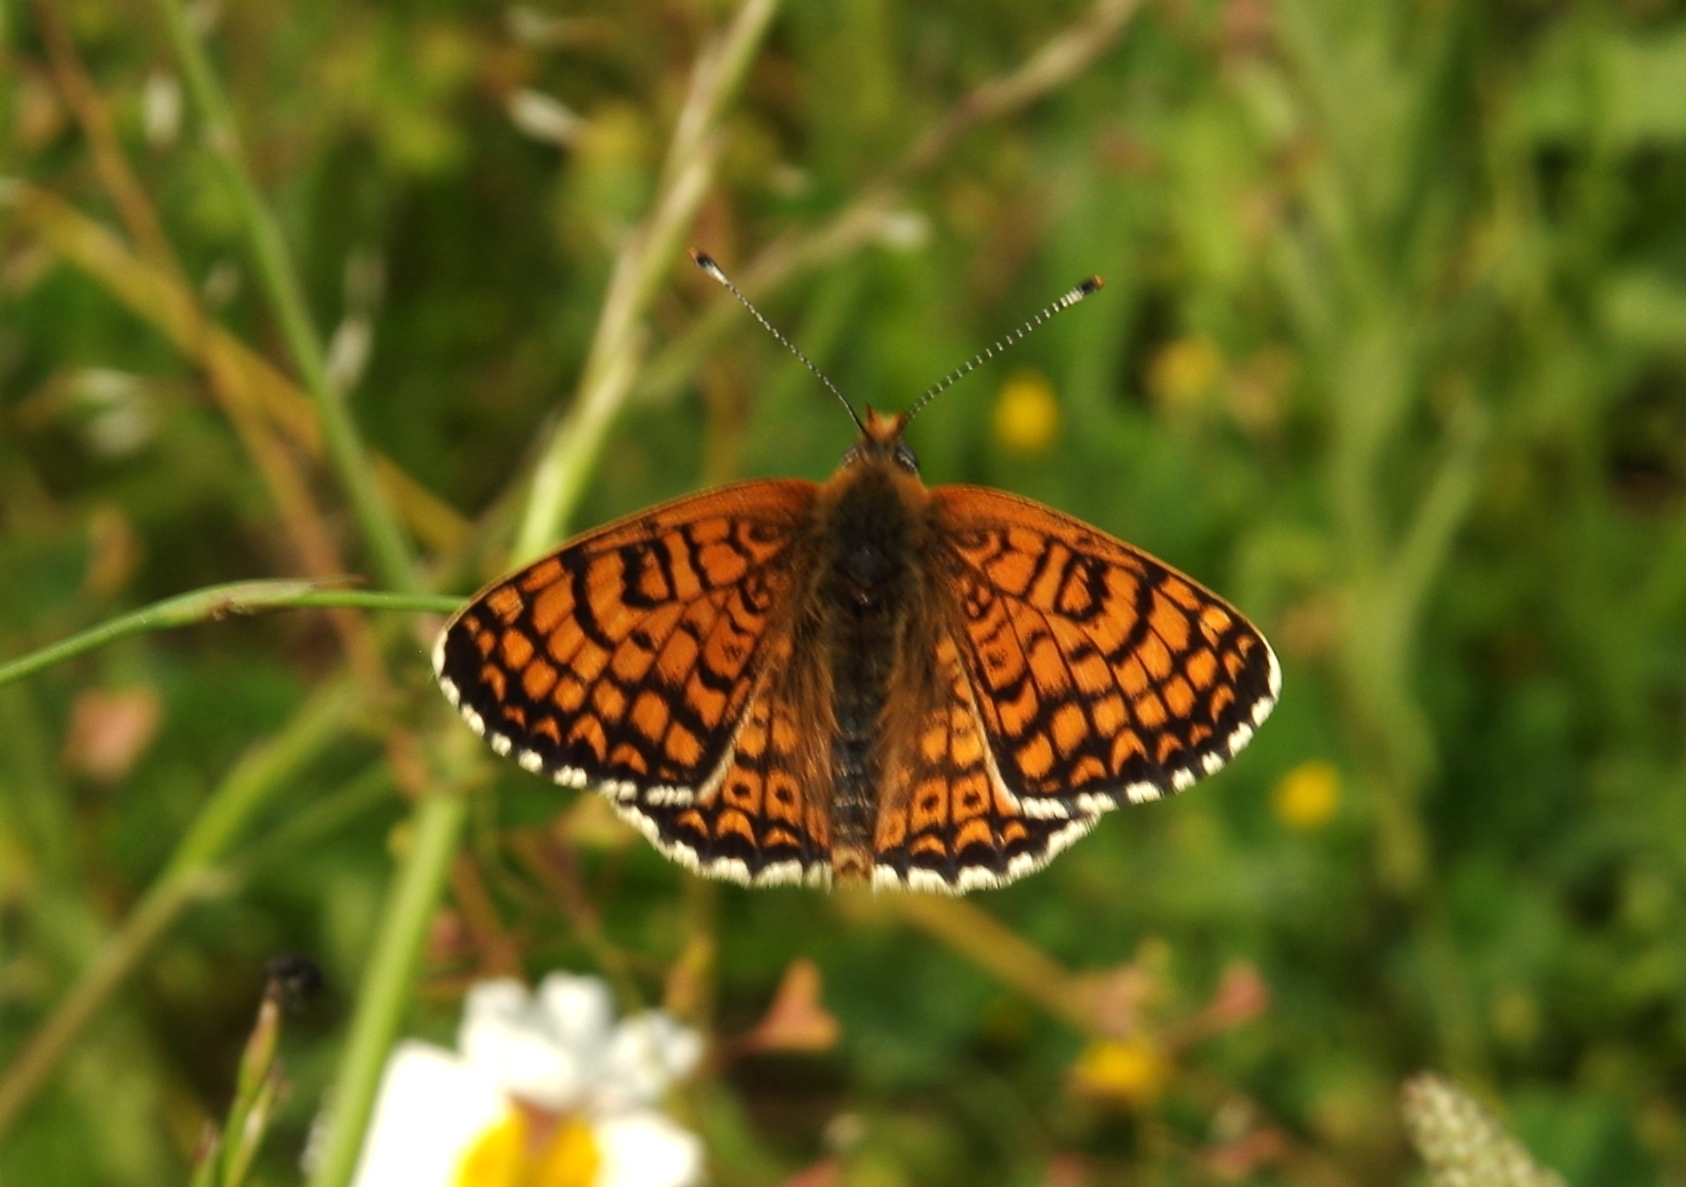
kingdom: Animalia
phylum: Arthropoda
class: Insecta
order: Lepidoptera
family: Nymphalidae
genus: Melitaea
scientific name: Melitaea cinxia
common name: Glanville fritillary
